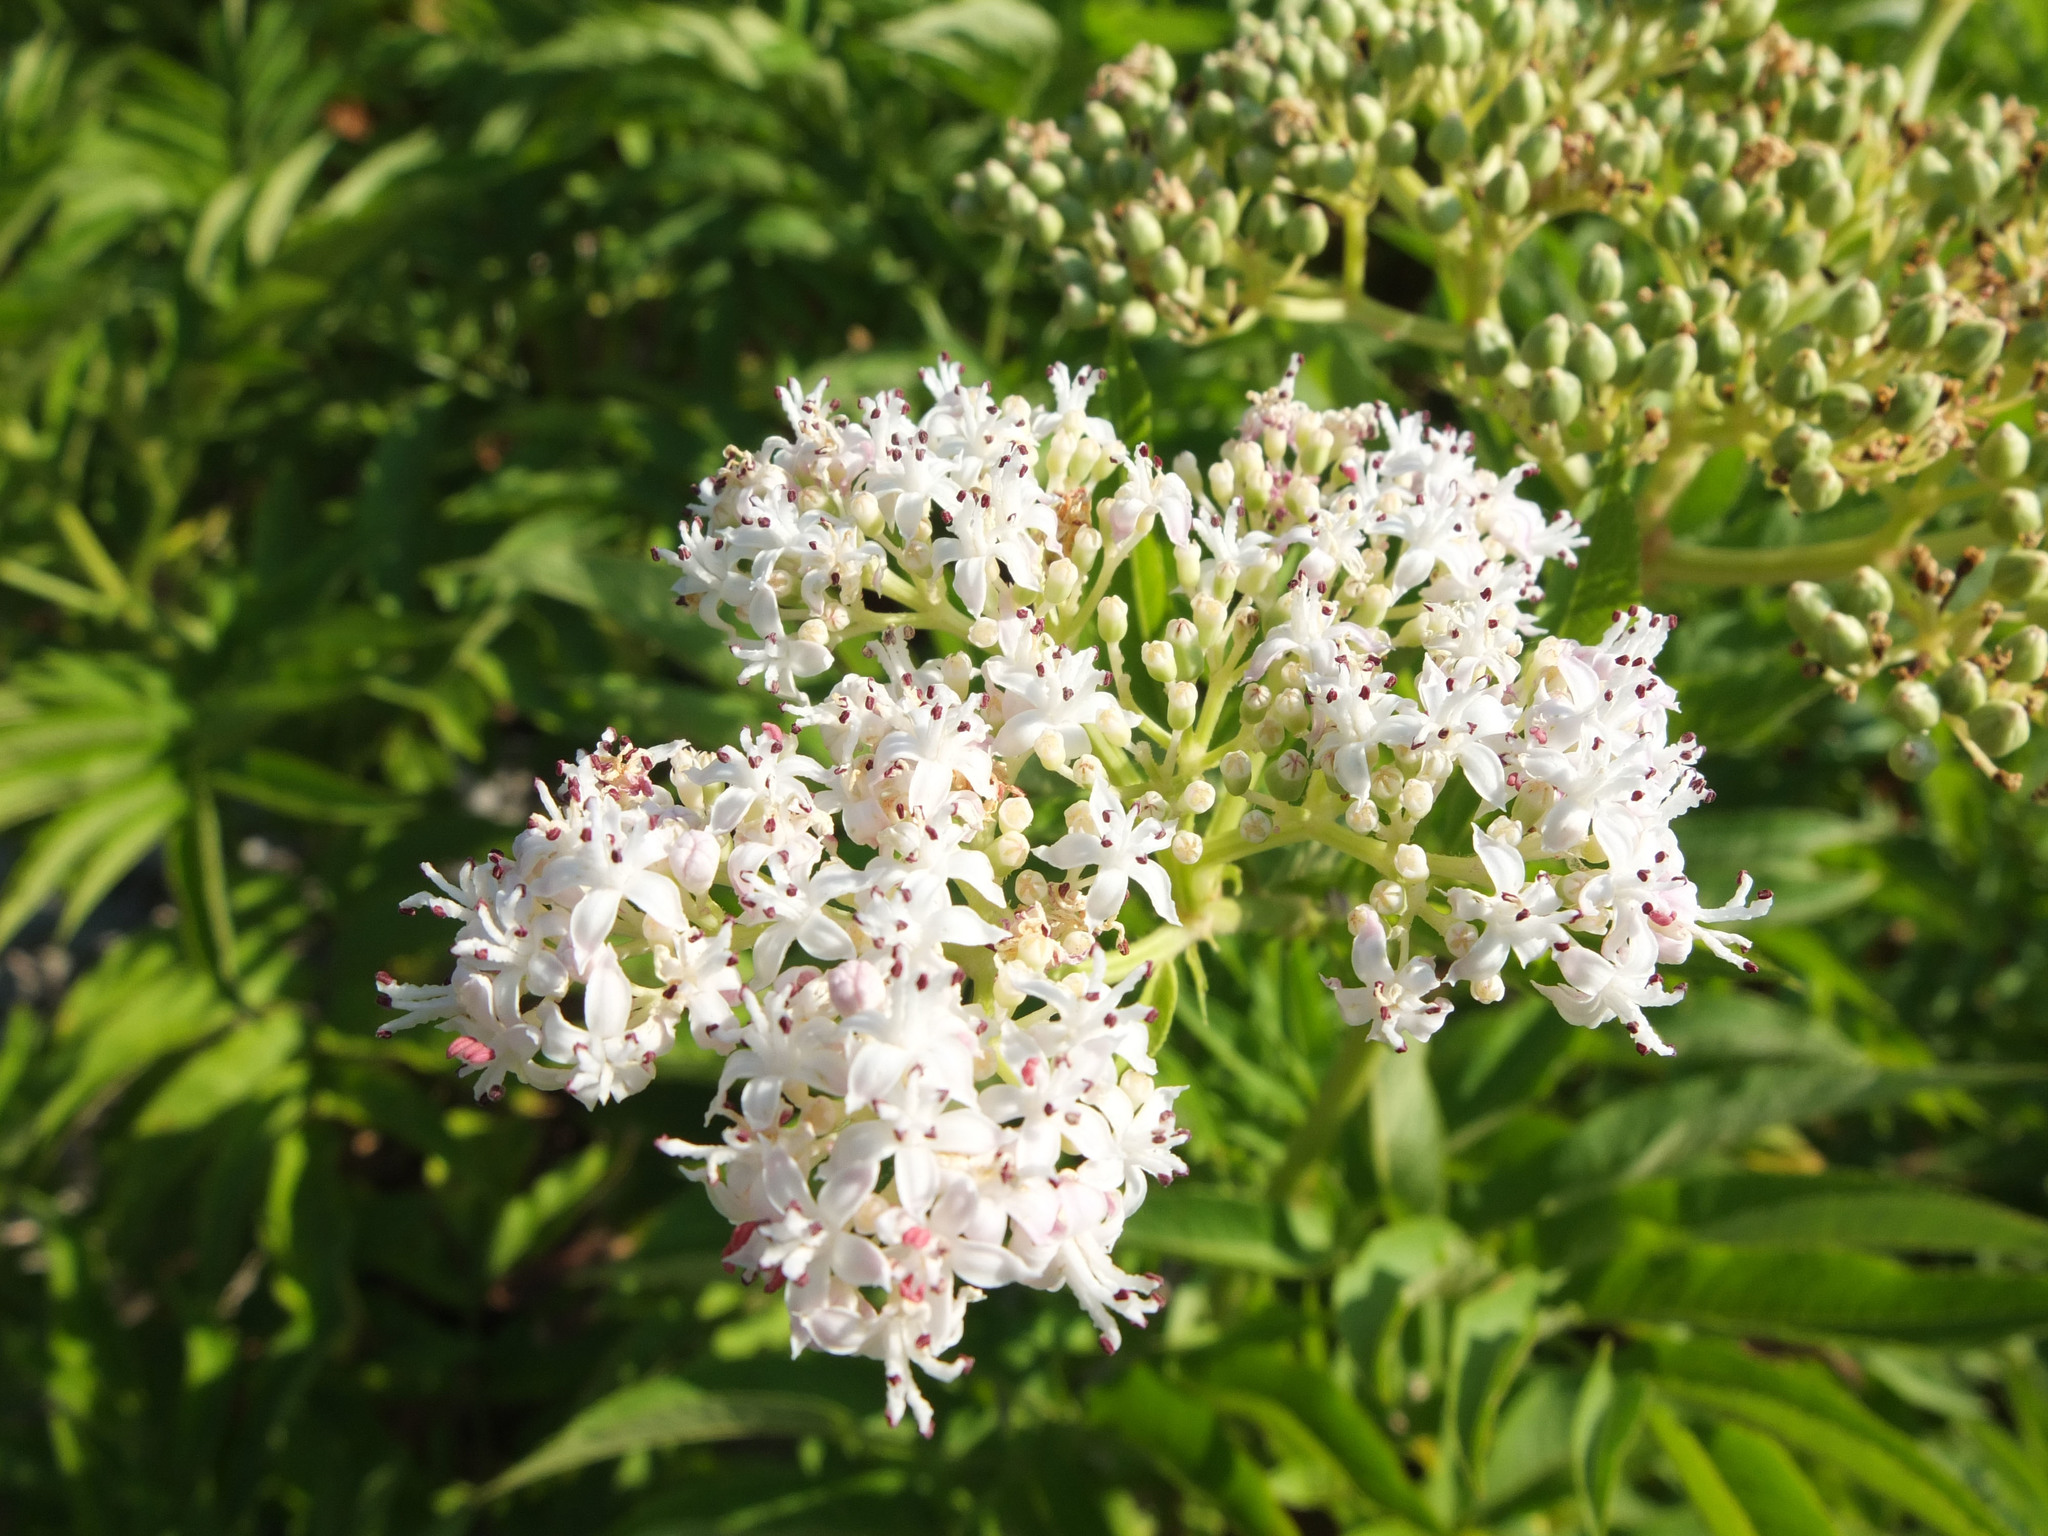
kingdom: Plantae
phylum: Tracheophyta
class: Magnoliopsida
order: Dipsacales
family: Viburnaceae
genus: Sambucus
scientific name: Sambucus ebulus
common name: Dwarf elder
